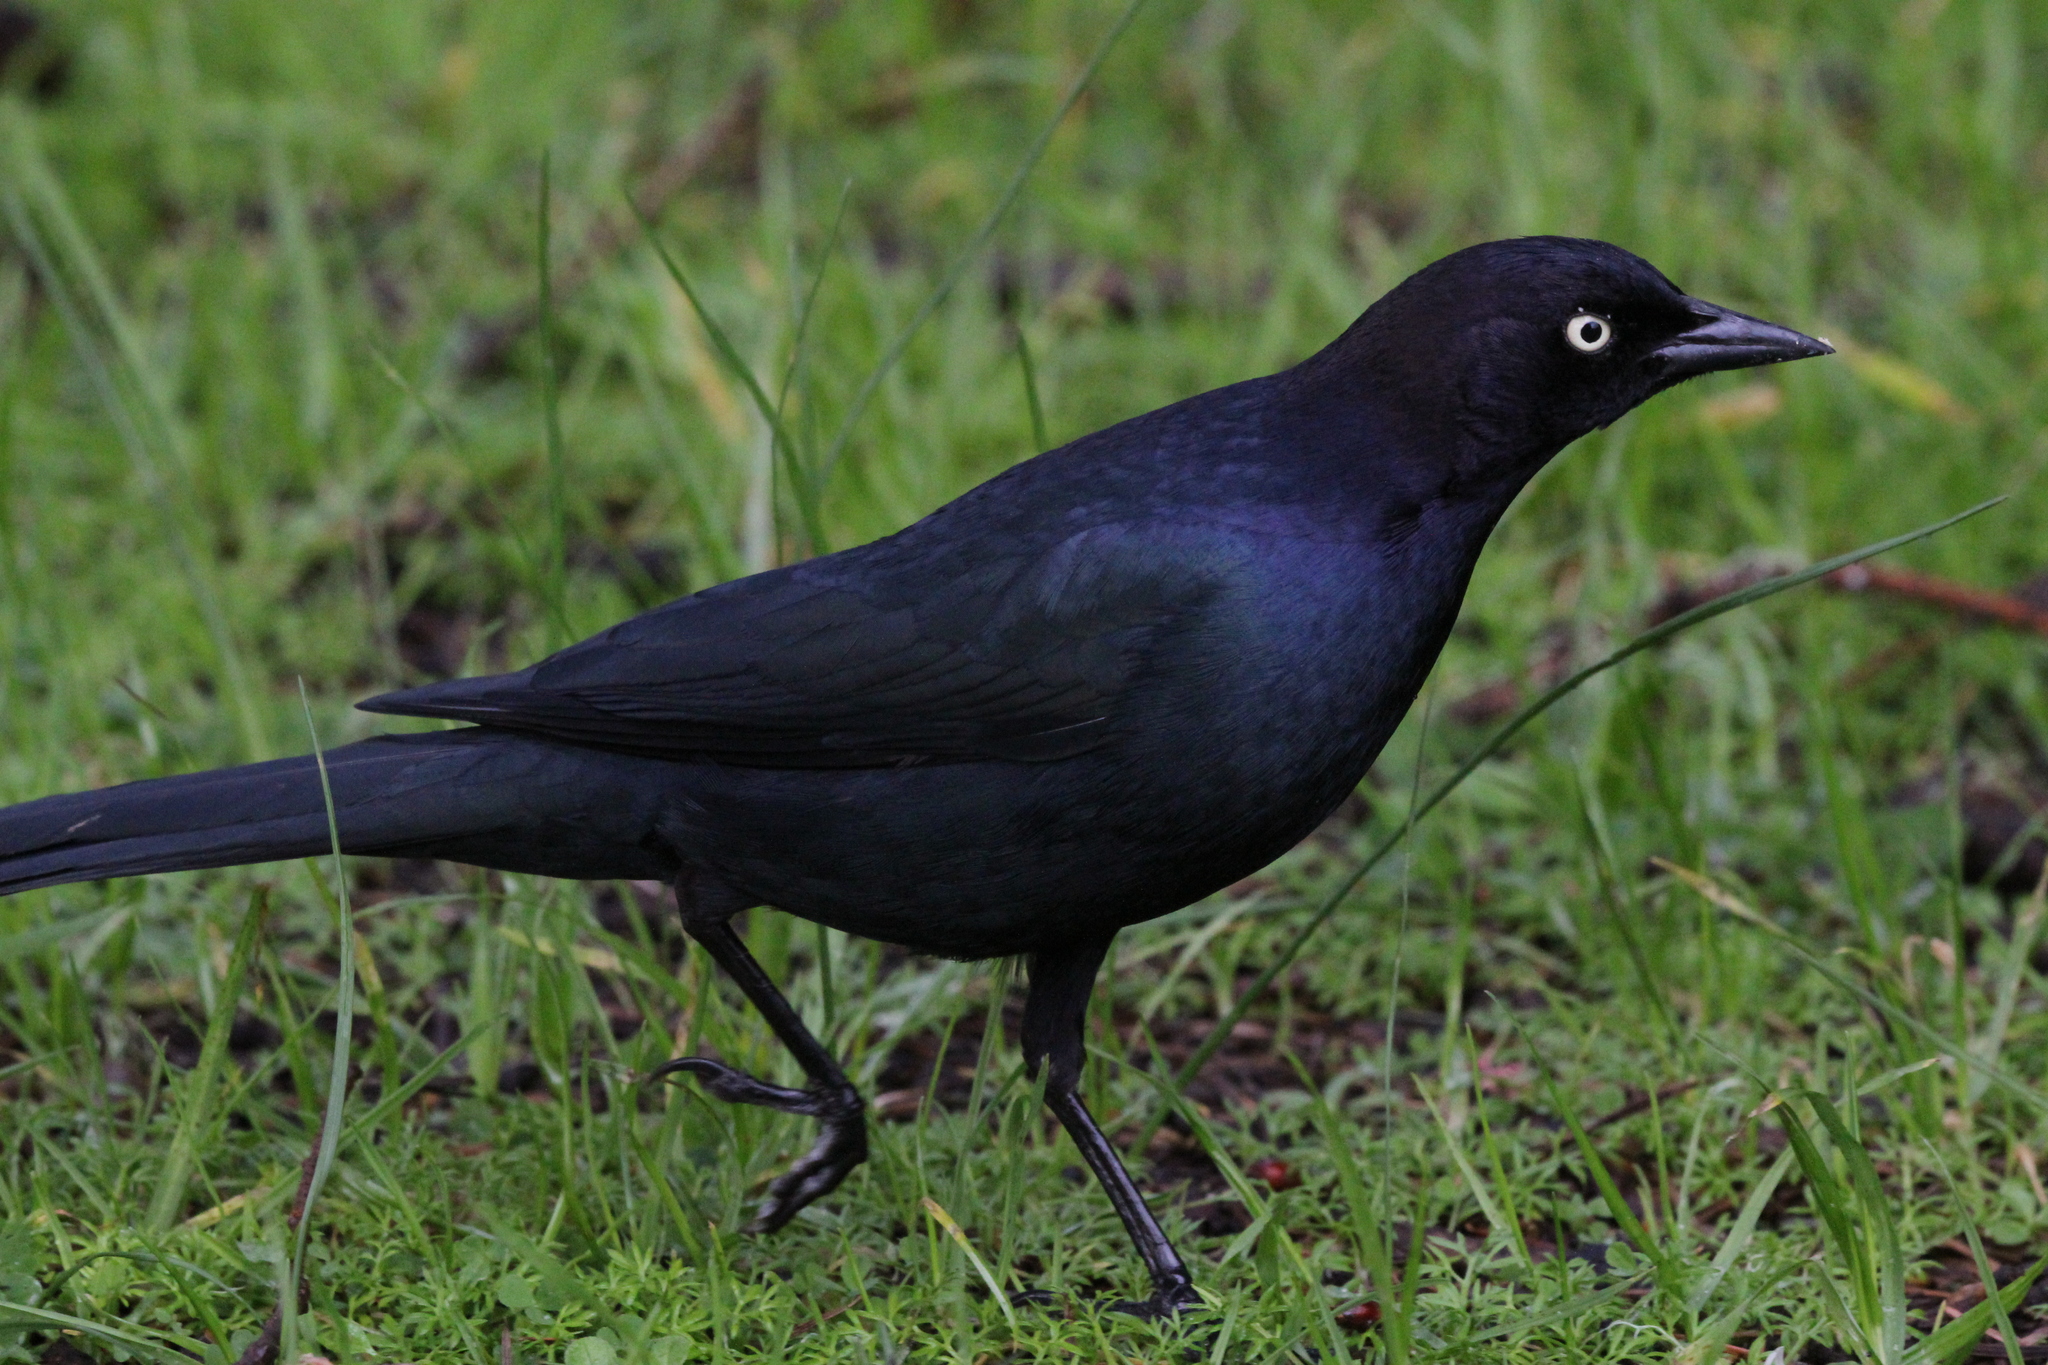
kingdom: Animalia
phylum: Chordata
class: Aves
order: Passeriformes
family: Icteridae
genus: Euphagus
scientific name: Euphagus cyanocephalus
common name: Brewer's blackbird
